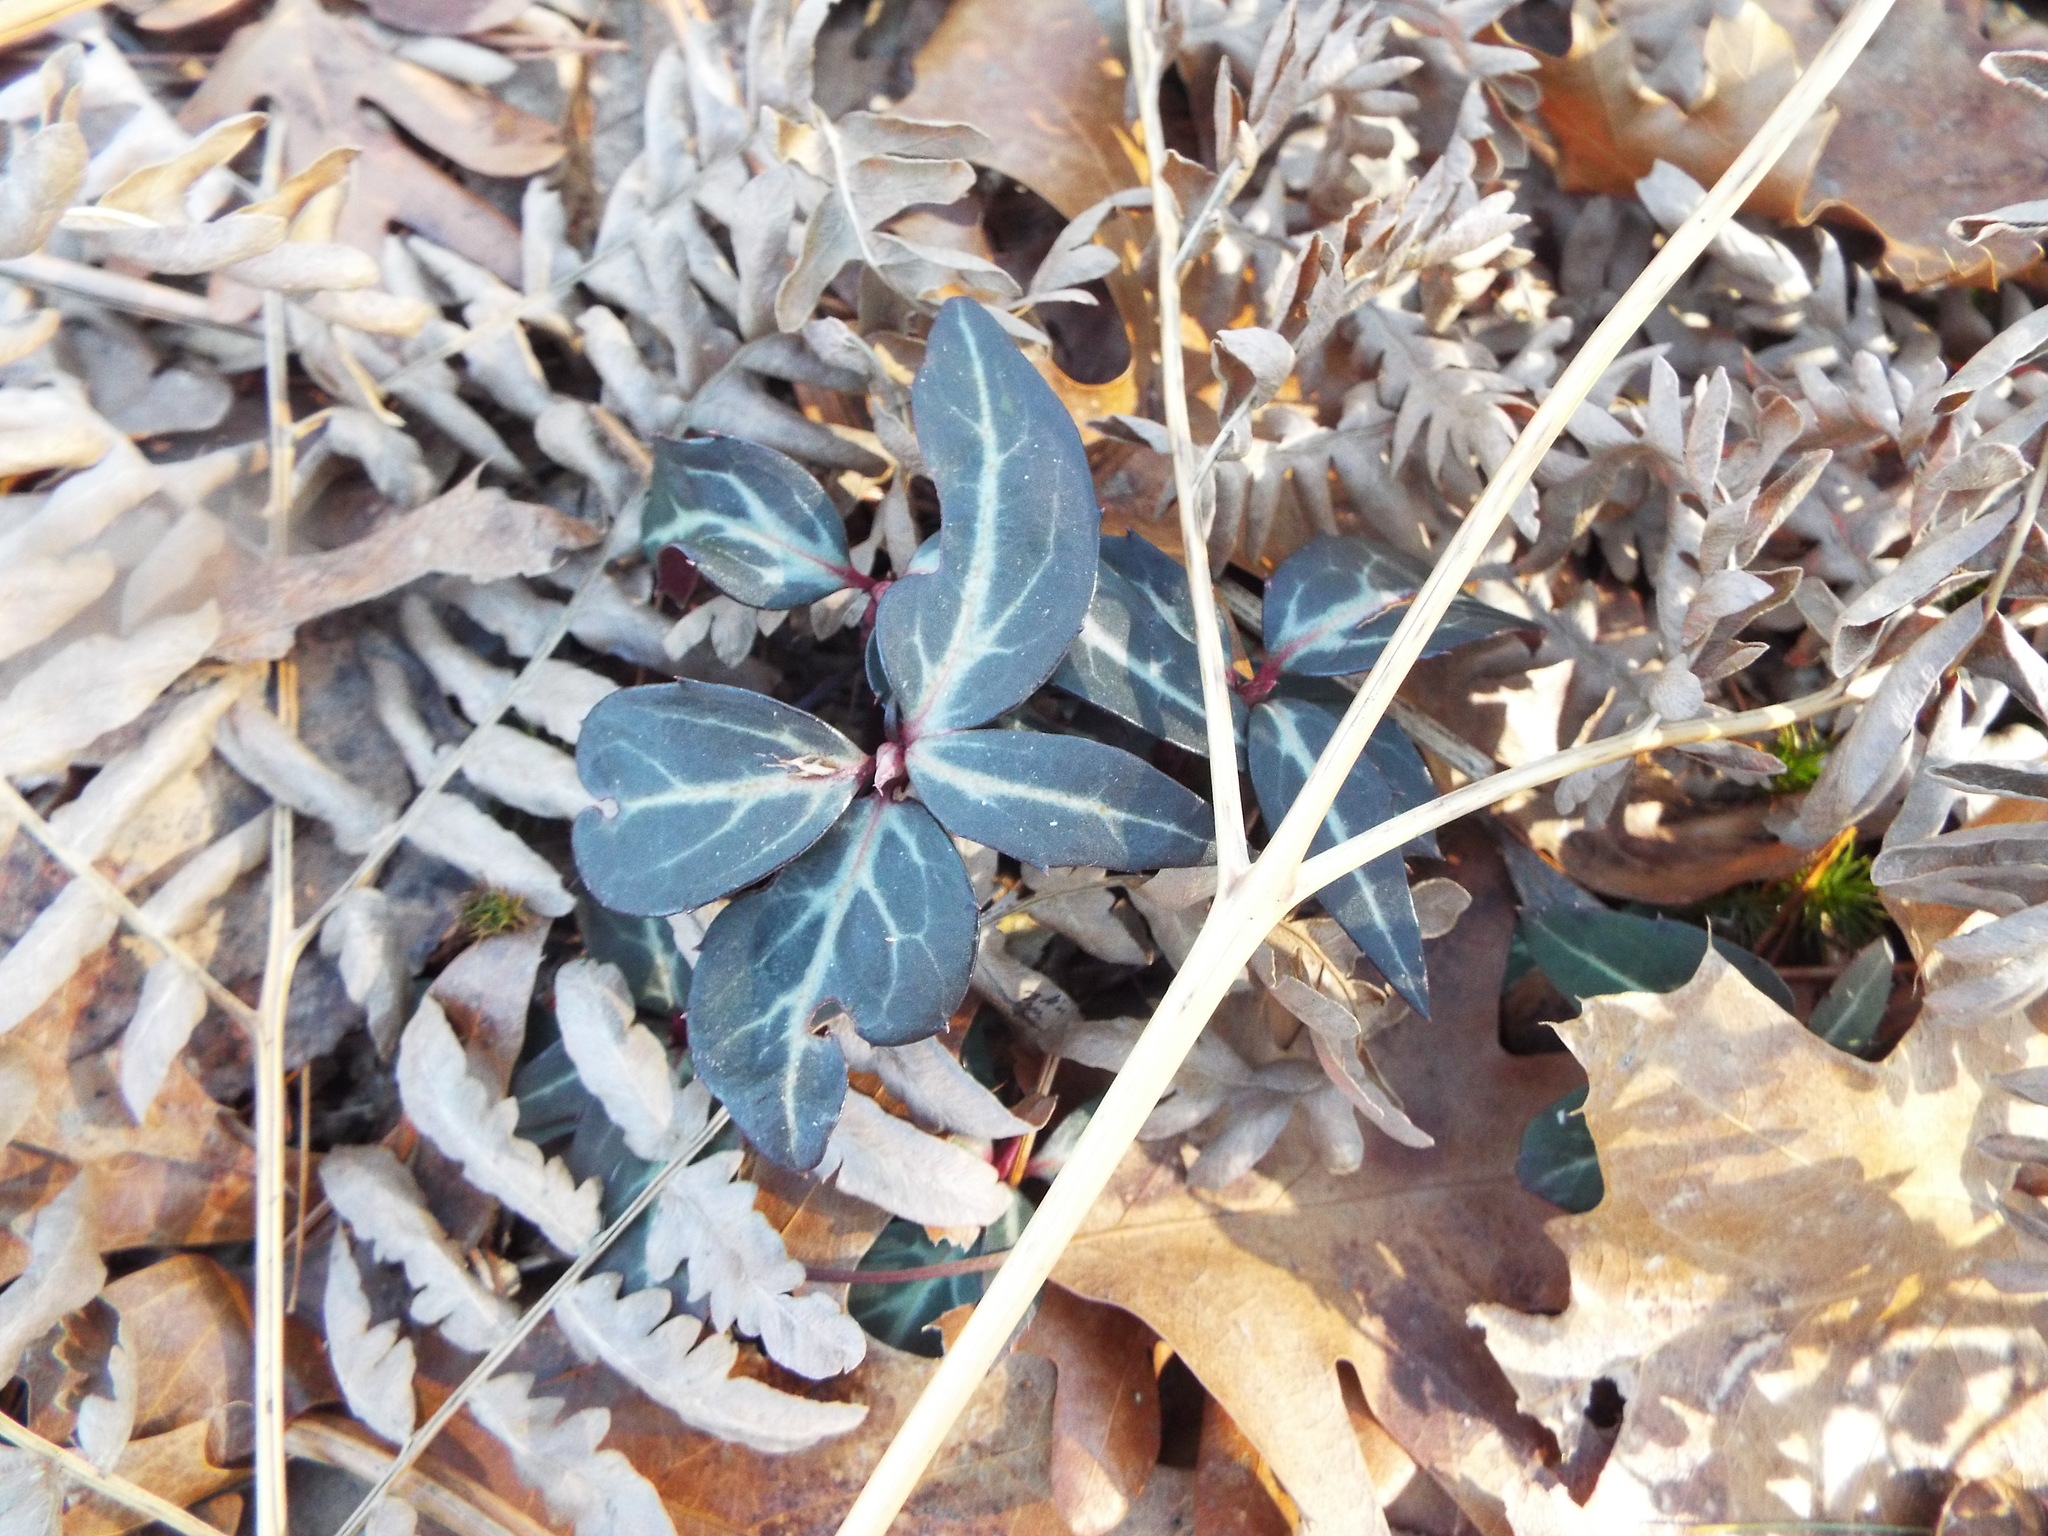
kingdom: Plantae
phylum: Tracheophyta
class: Magnoliopsida
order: Ericales
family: Ericaceae
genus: Chimaphila
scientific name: Chimaphila maculata
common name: Spotted pipsissewa
